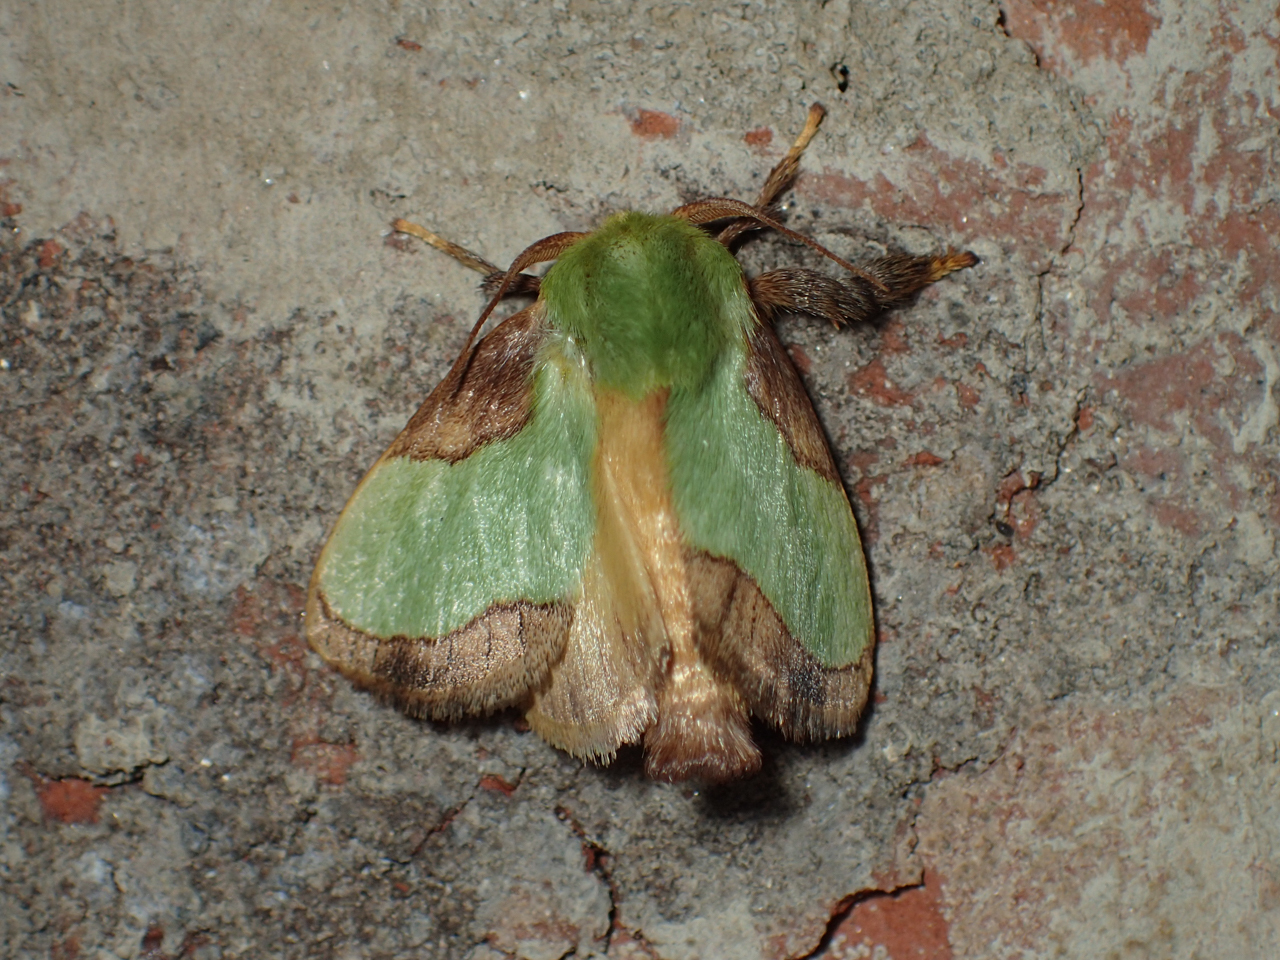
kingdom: Animalia
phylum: Arthropoda
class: Insecta
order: Lepidoptera
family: Limacodidae
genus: Parasa
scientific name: Parasa indetermina
